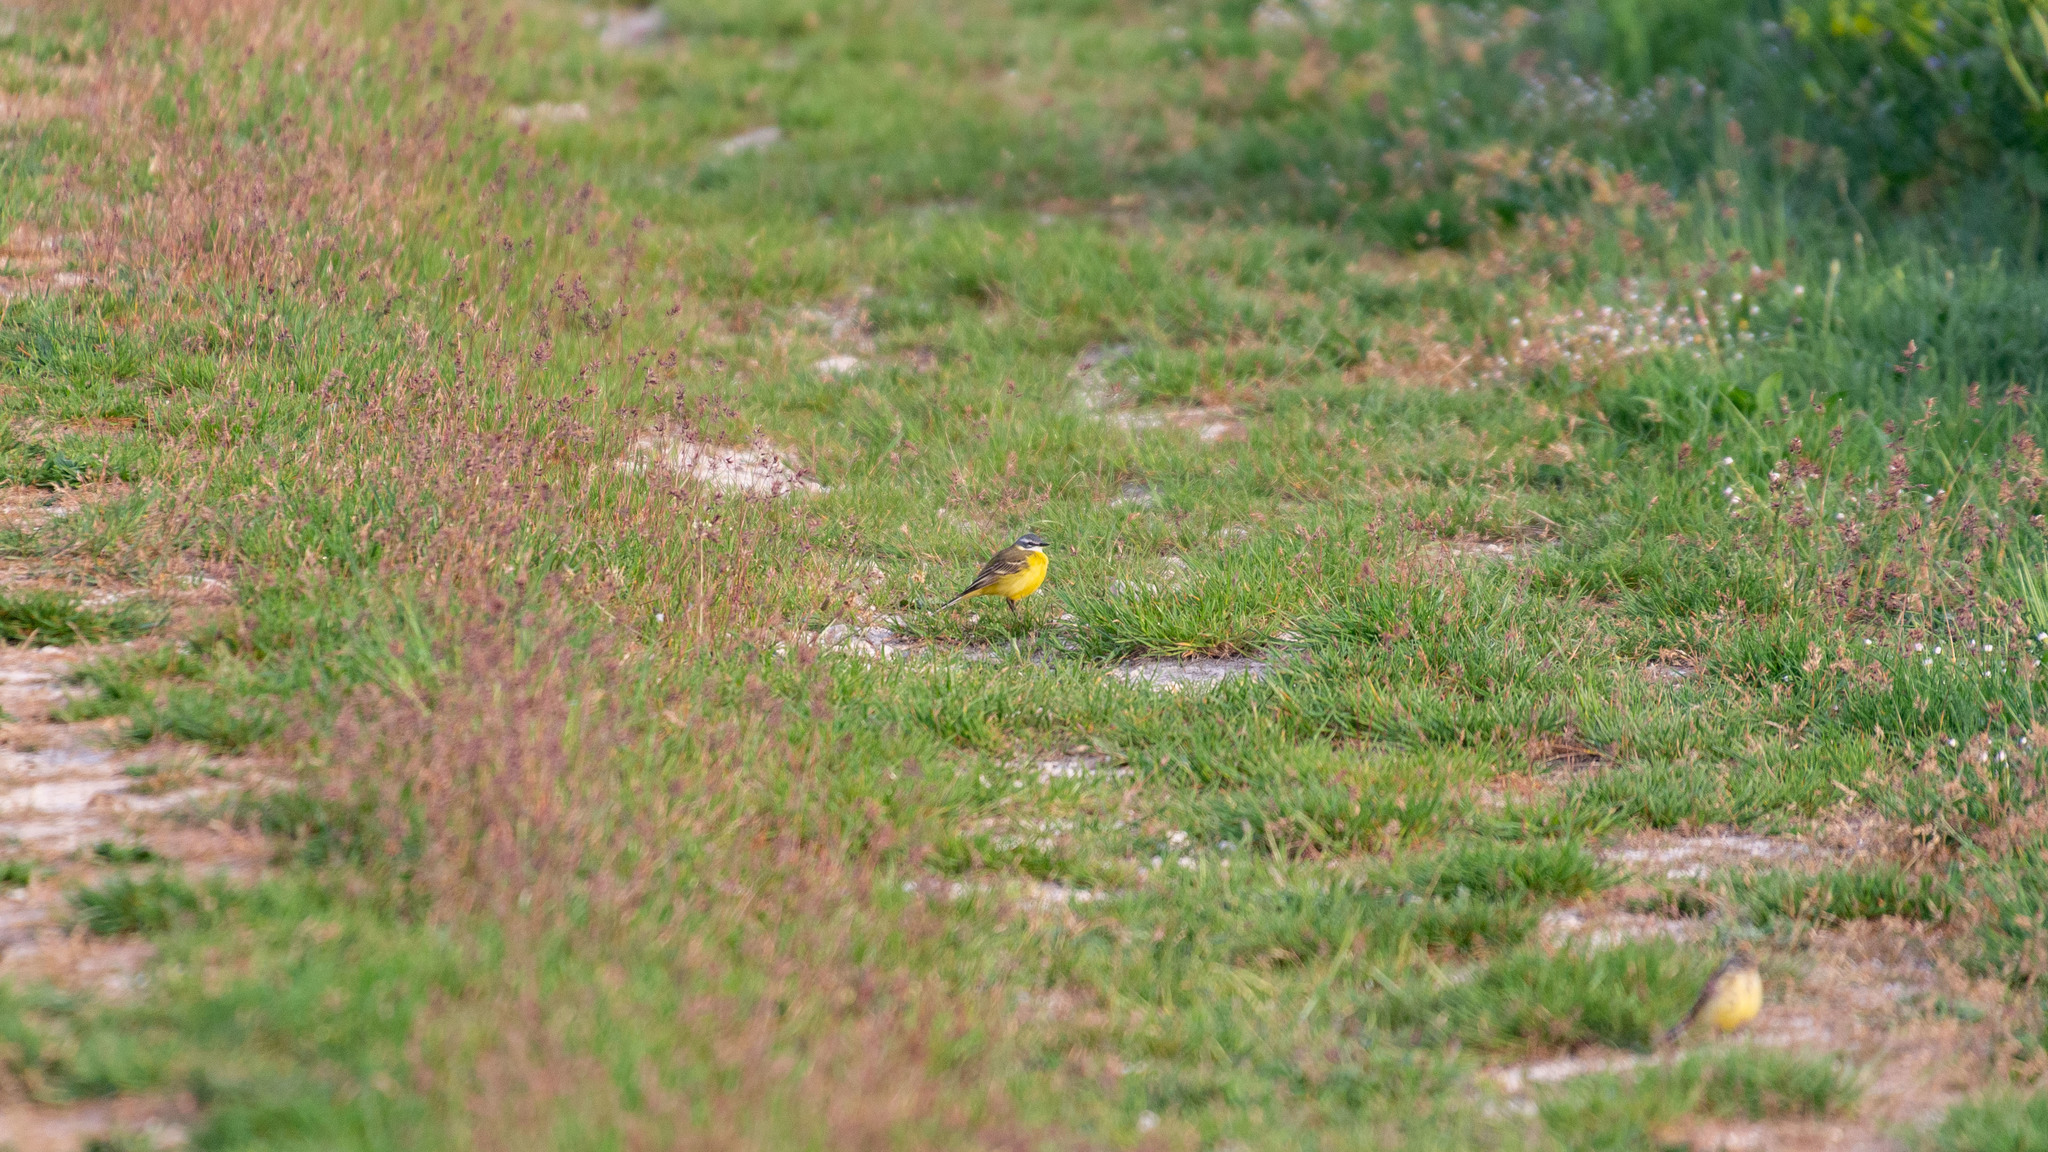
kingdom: Animalia
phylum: Chordata
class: Aves
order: Passeriformes
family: Motacillidae
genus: Motacilla
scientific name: Motacilla flava
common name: Western yellow wagtail
